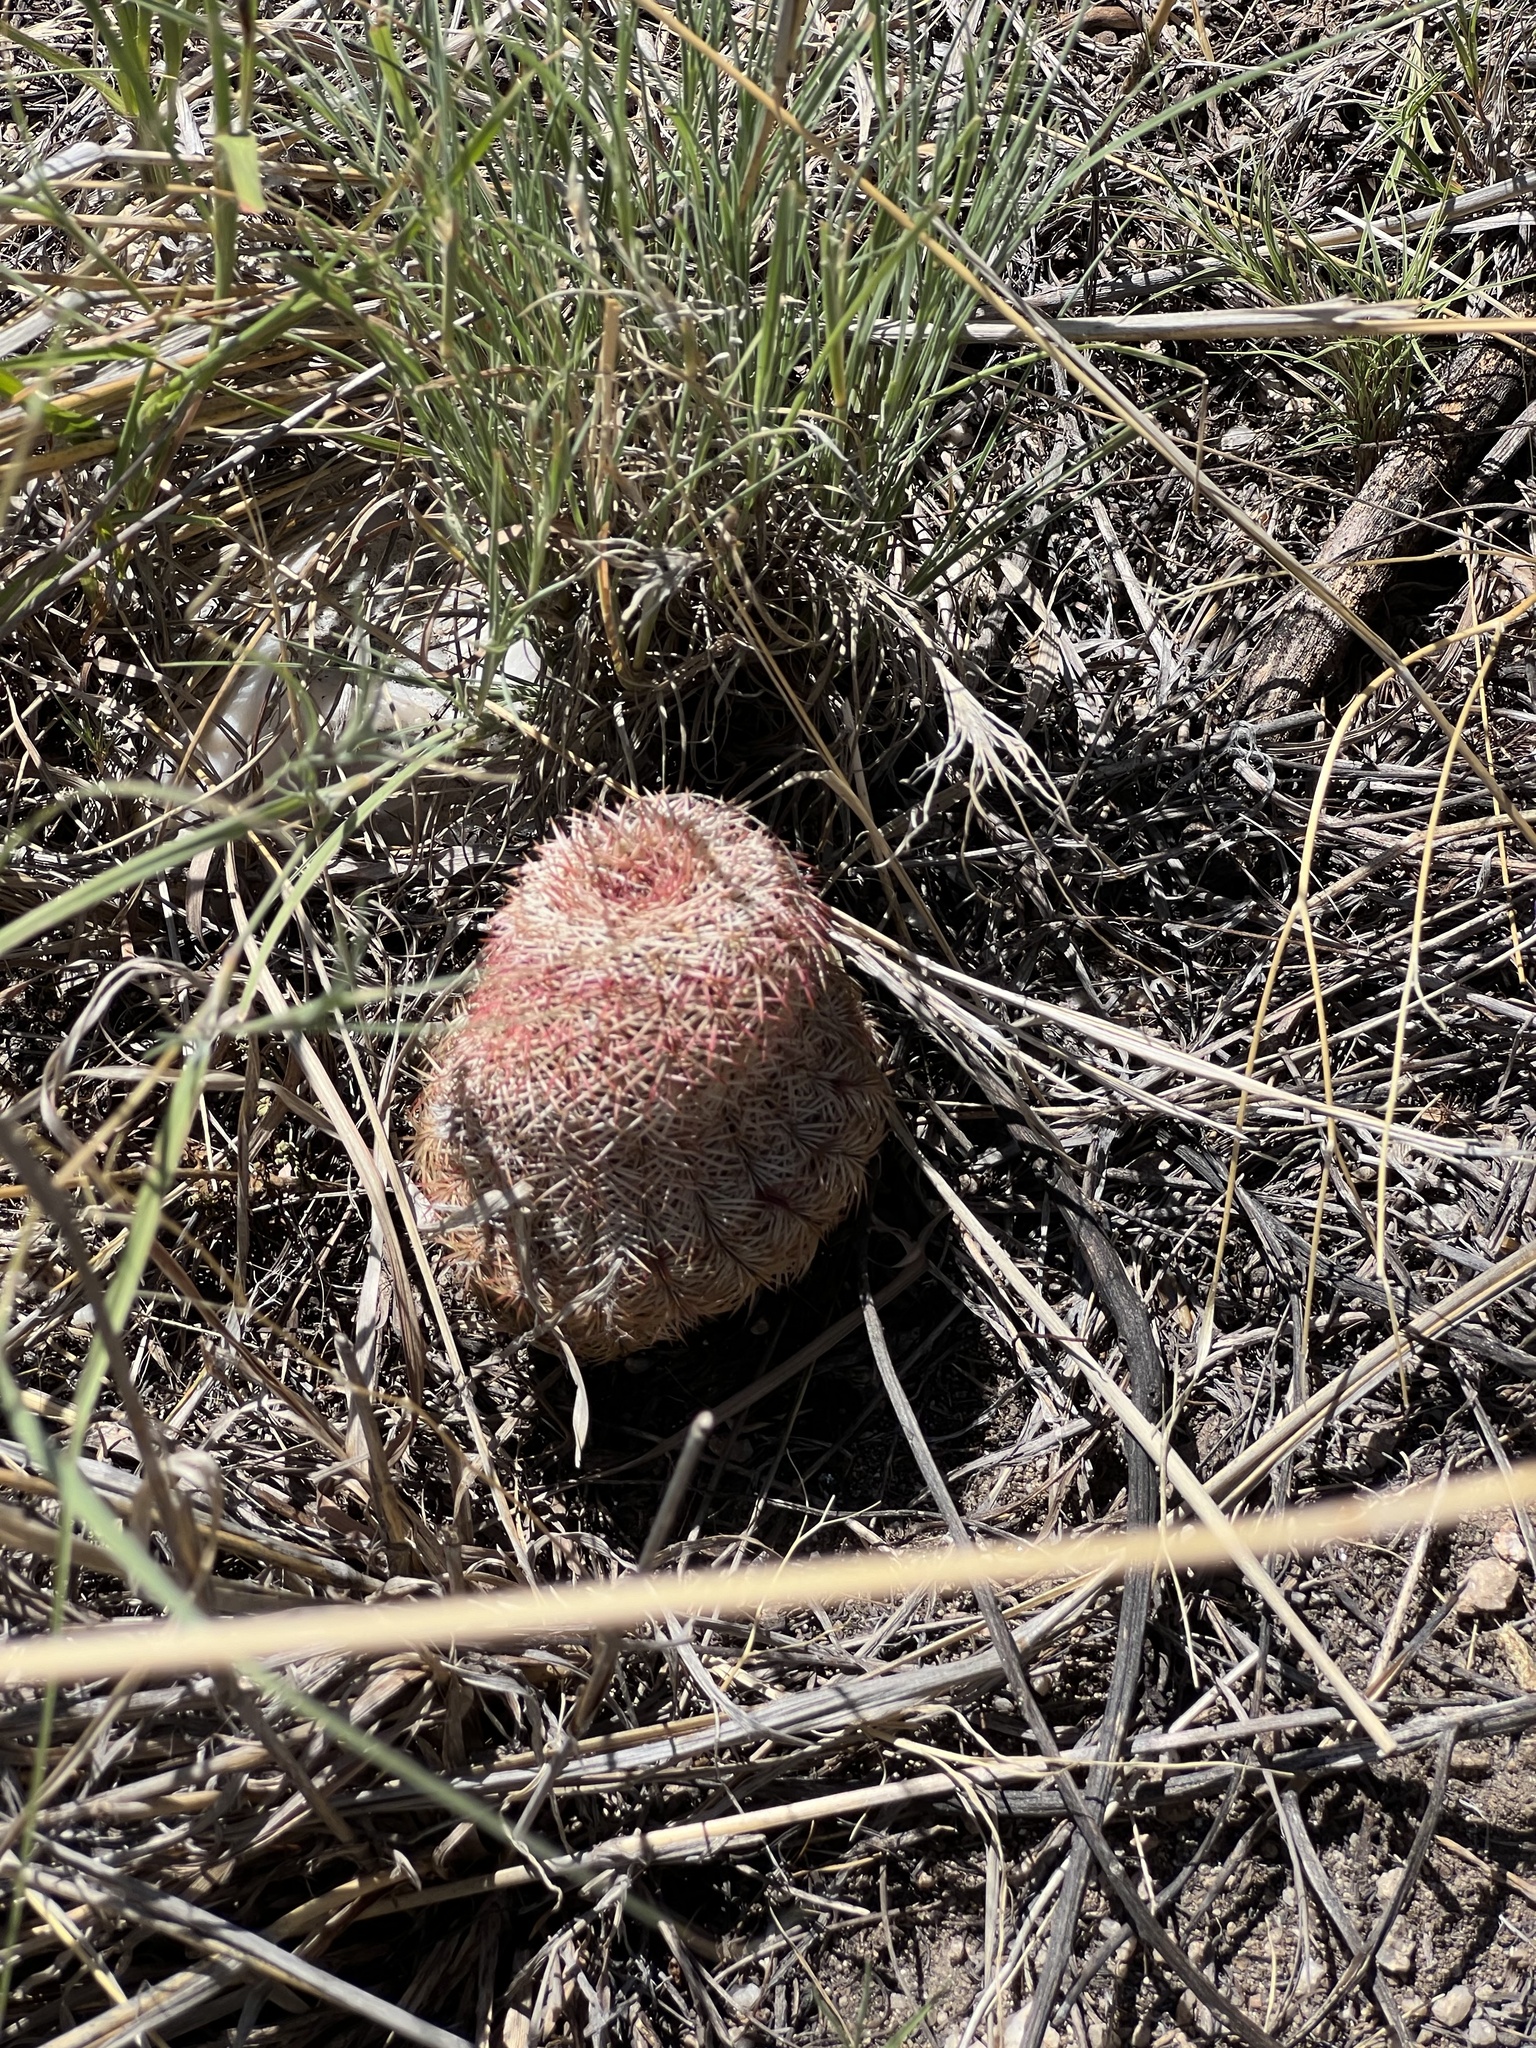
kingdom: Plantae
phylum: Tracheophyta
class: Magnoliopsida
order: Caryophyllales
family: Cactaceae
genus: Echinocereus
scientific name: Echinocereus rigidissimus
